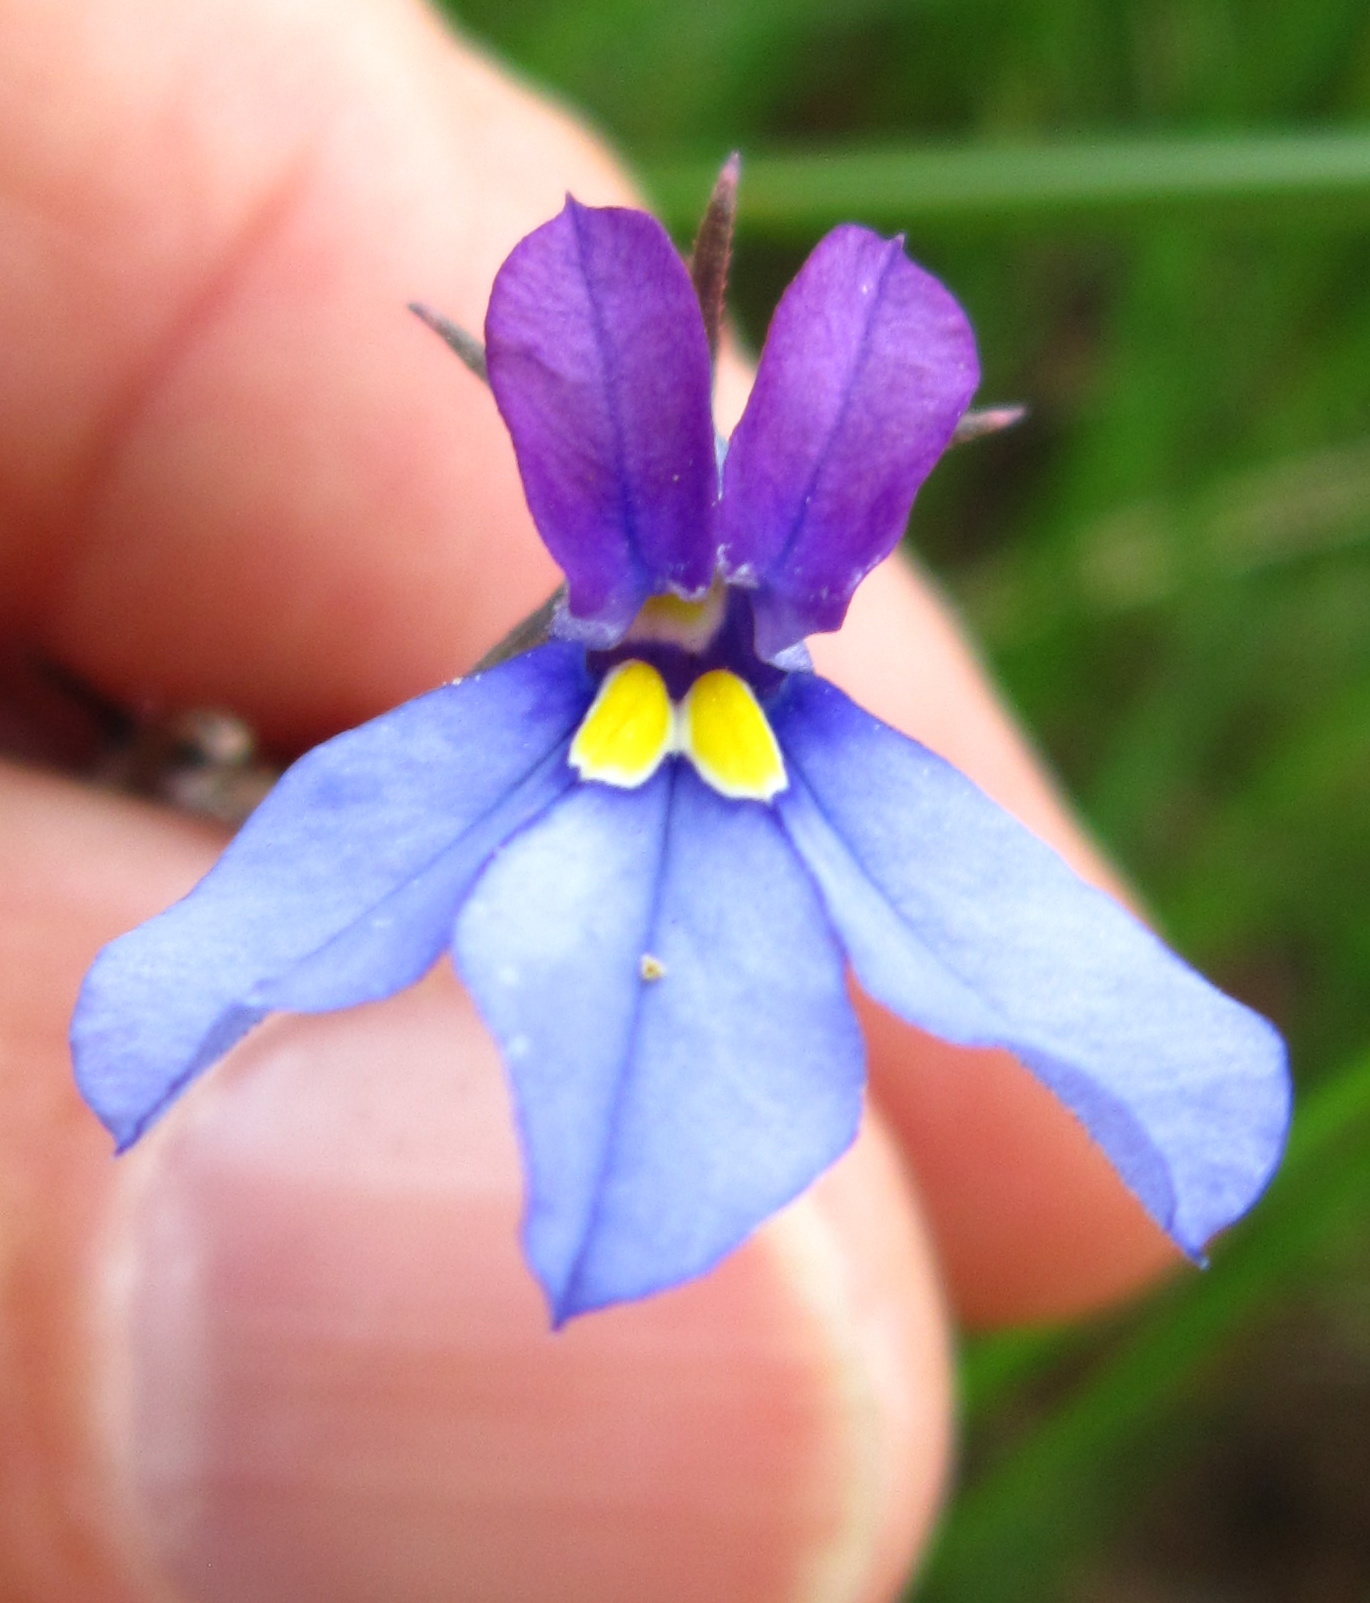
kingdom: Plantae
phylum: Tracheophyta
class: Magnoliopsida
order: Asterales
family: Campanulaceae
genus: Monopsis
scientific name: Monopsis decipiens
